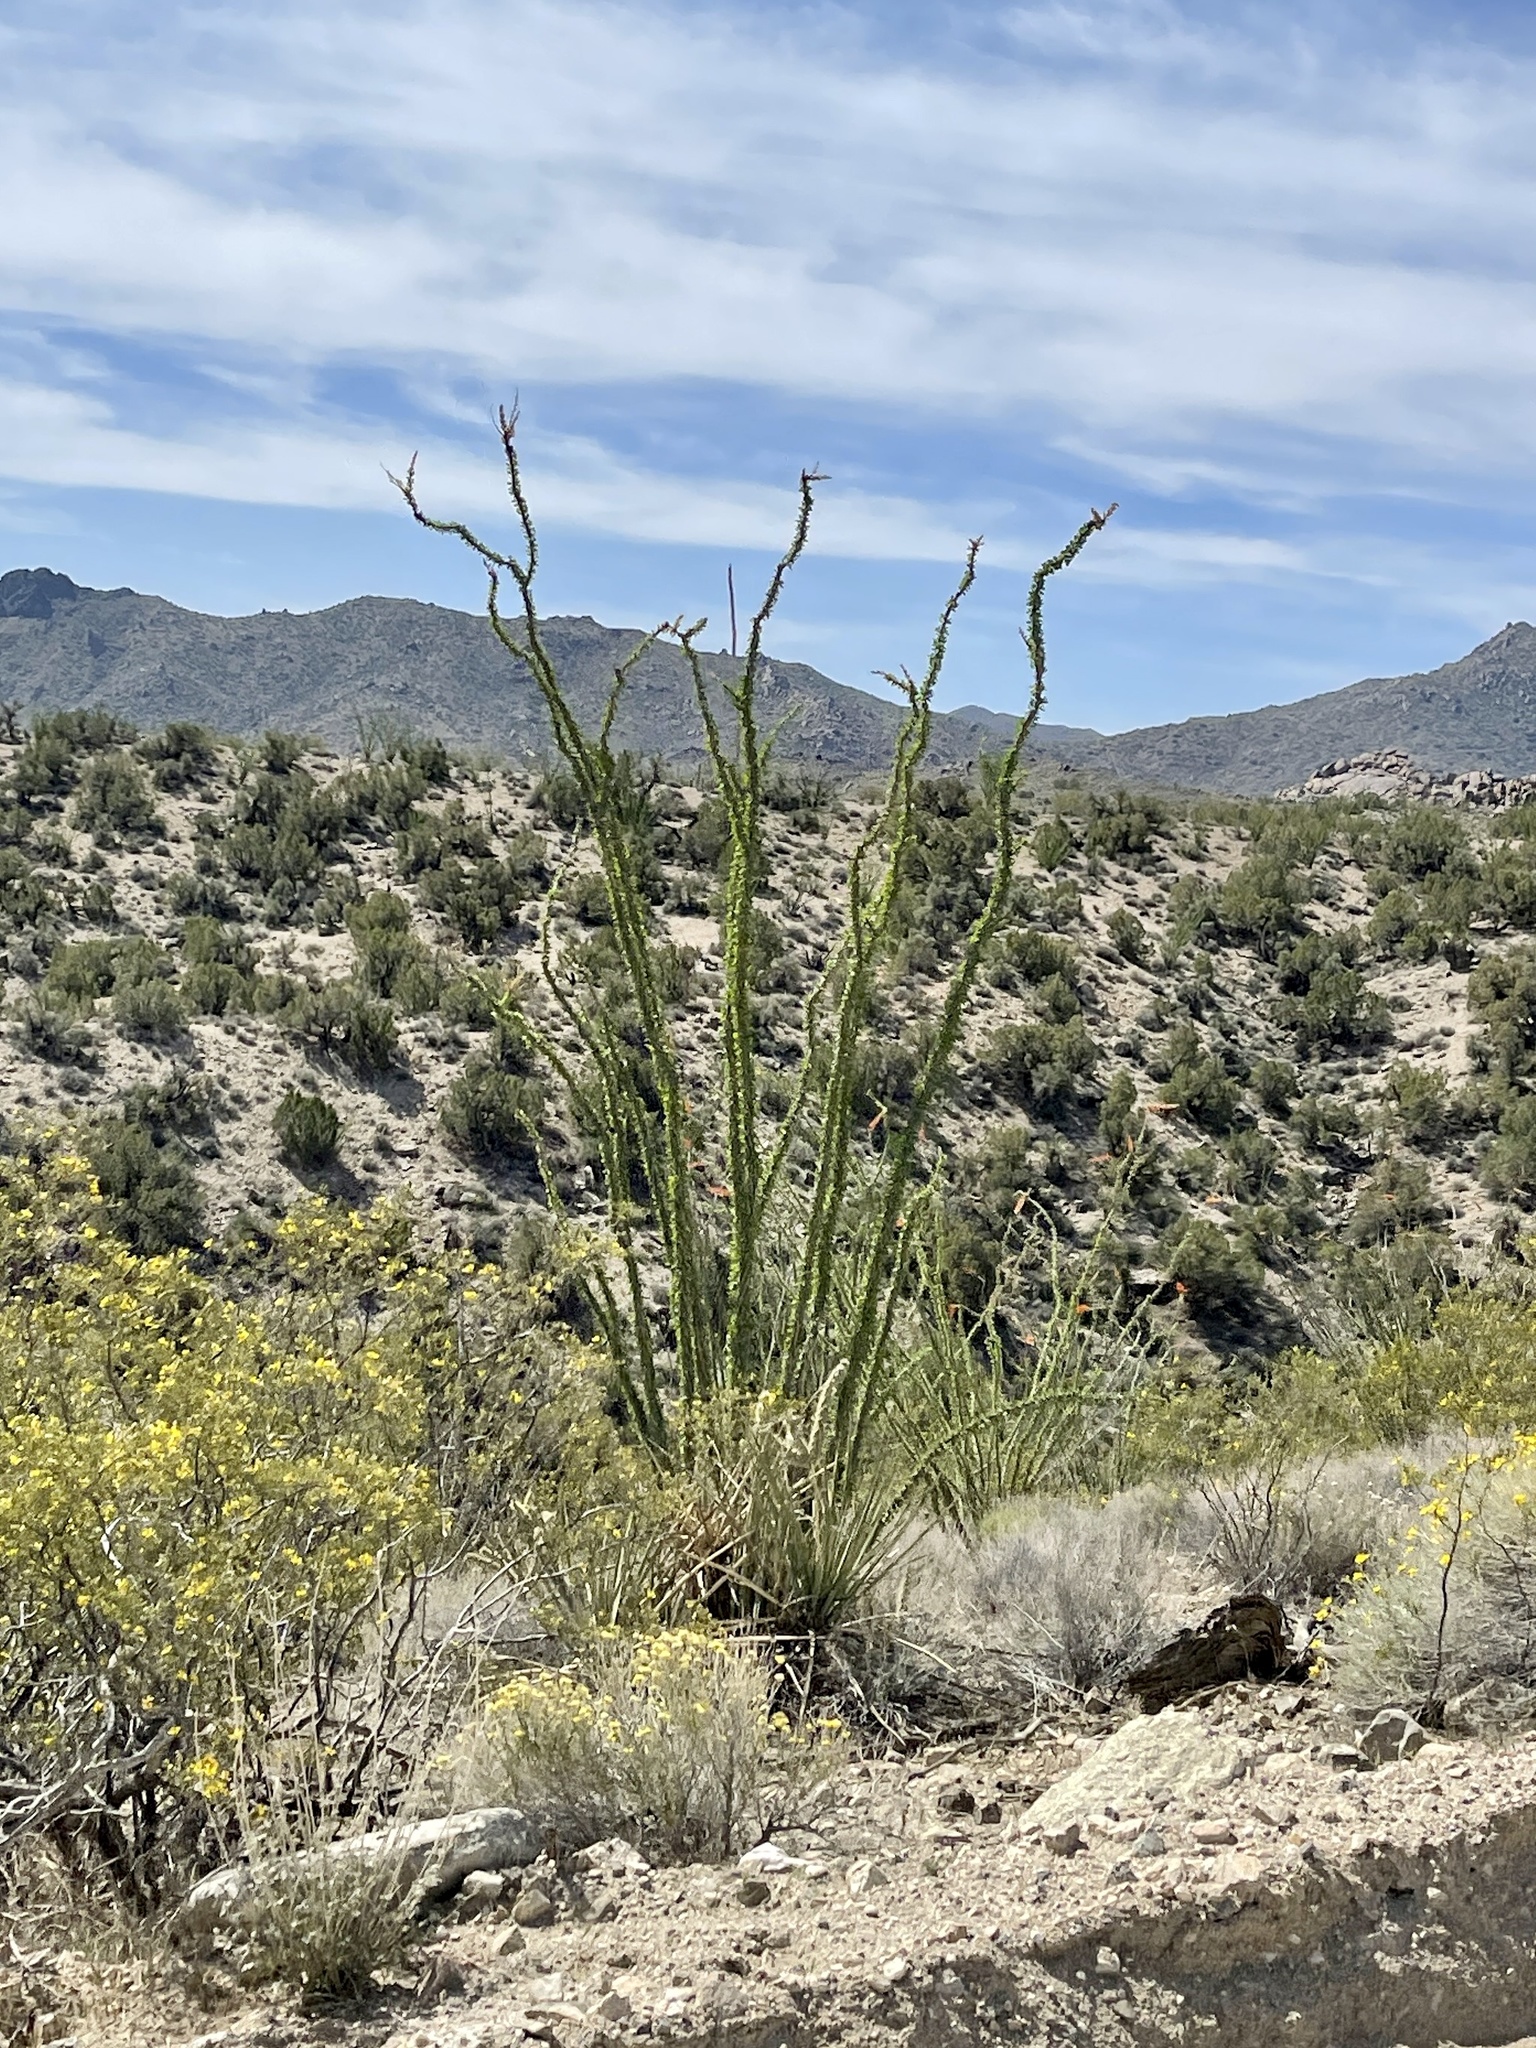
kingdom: Plantae
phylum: Tracheophyta
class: Magnoliopsida
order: Ericales
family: Fouquieriaceae
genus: Fouquieria
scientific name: Fouquieria splendens
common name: Vine-cactus
